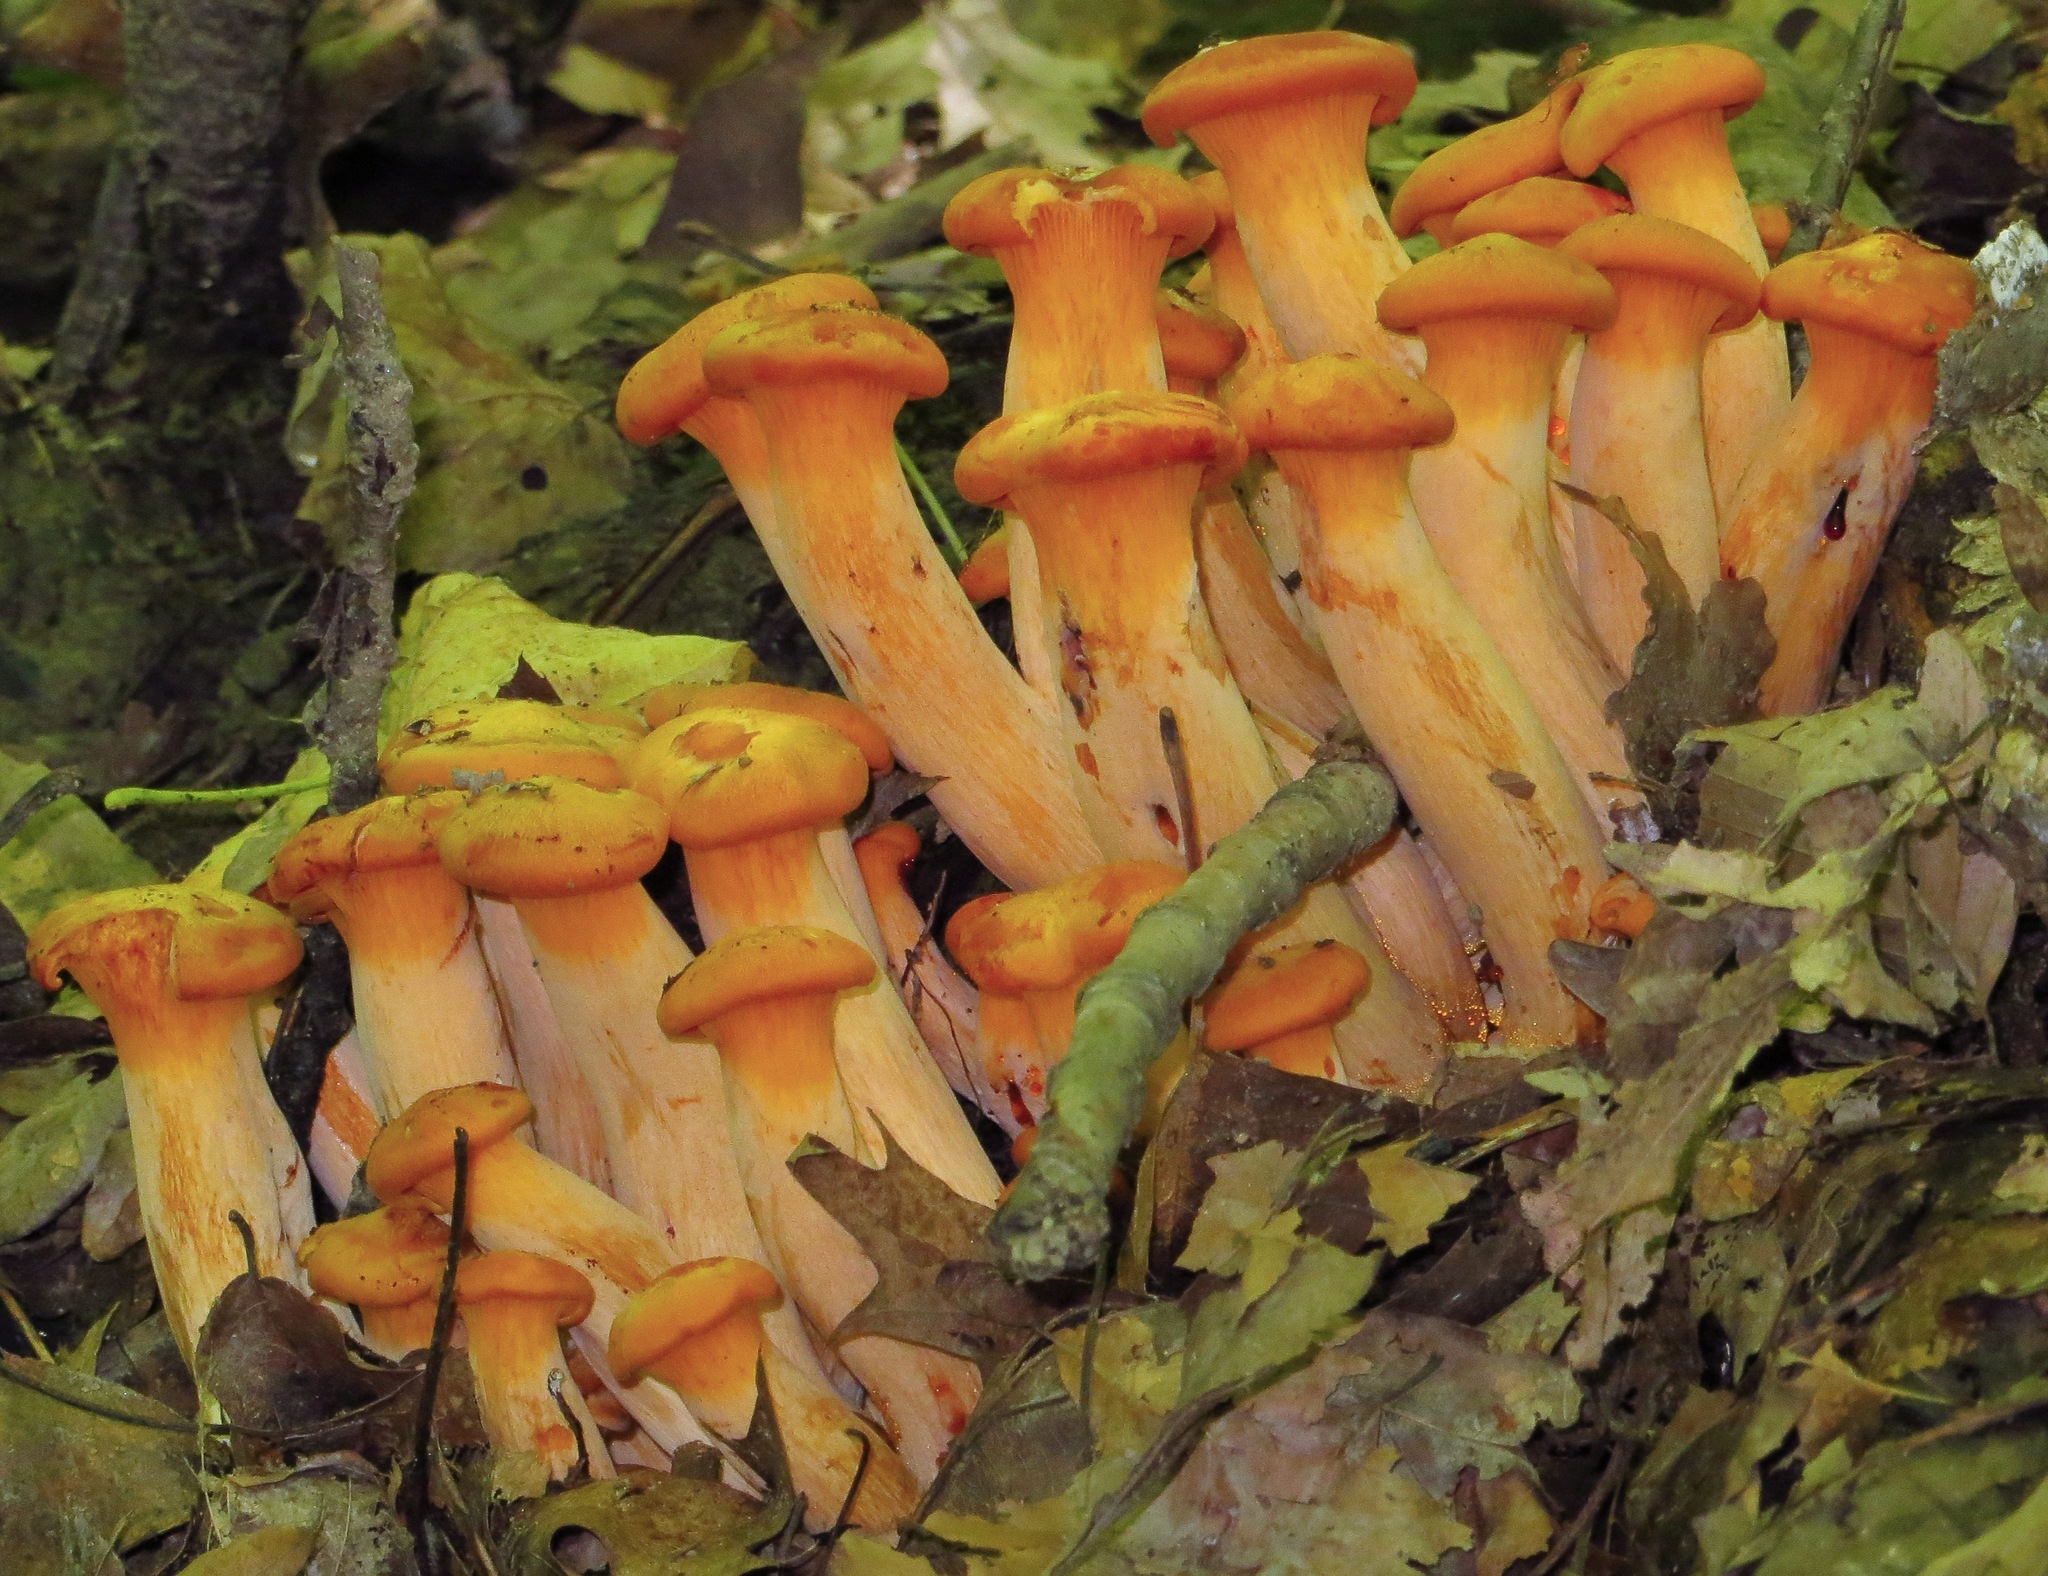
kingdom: Fungi
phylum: Basidiomycota
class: Agaricomycetes
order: Agaricales
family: Omphalotaceae
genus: Omphalotus
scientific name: Omphalotus illudens
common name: Jack o lantern
